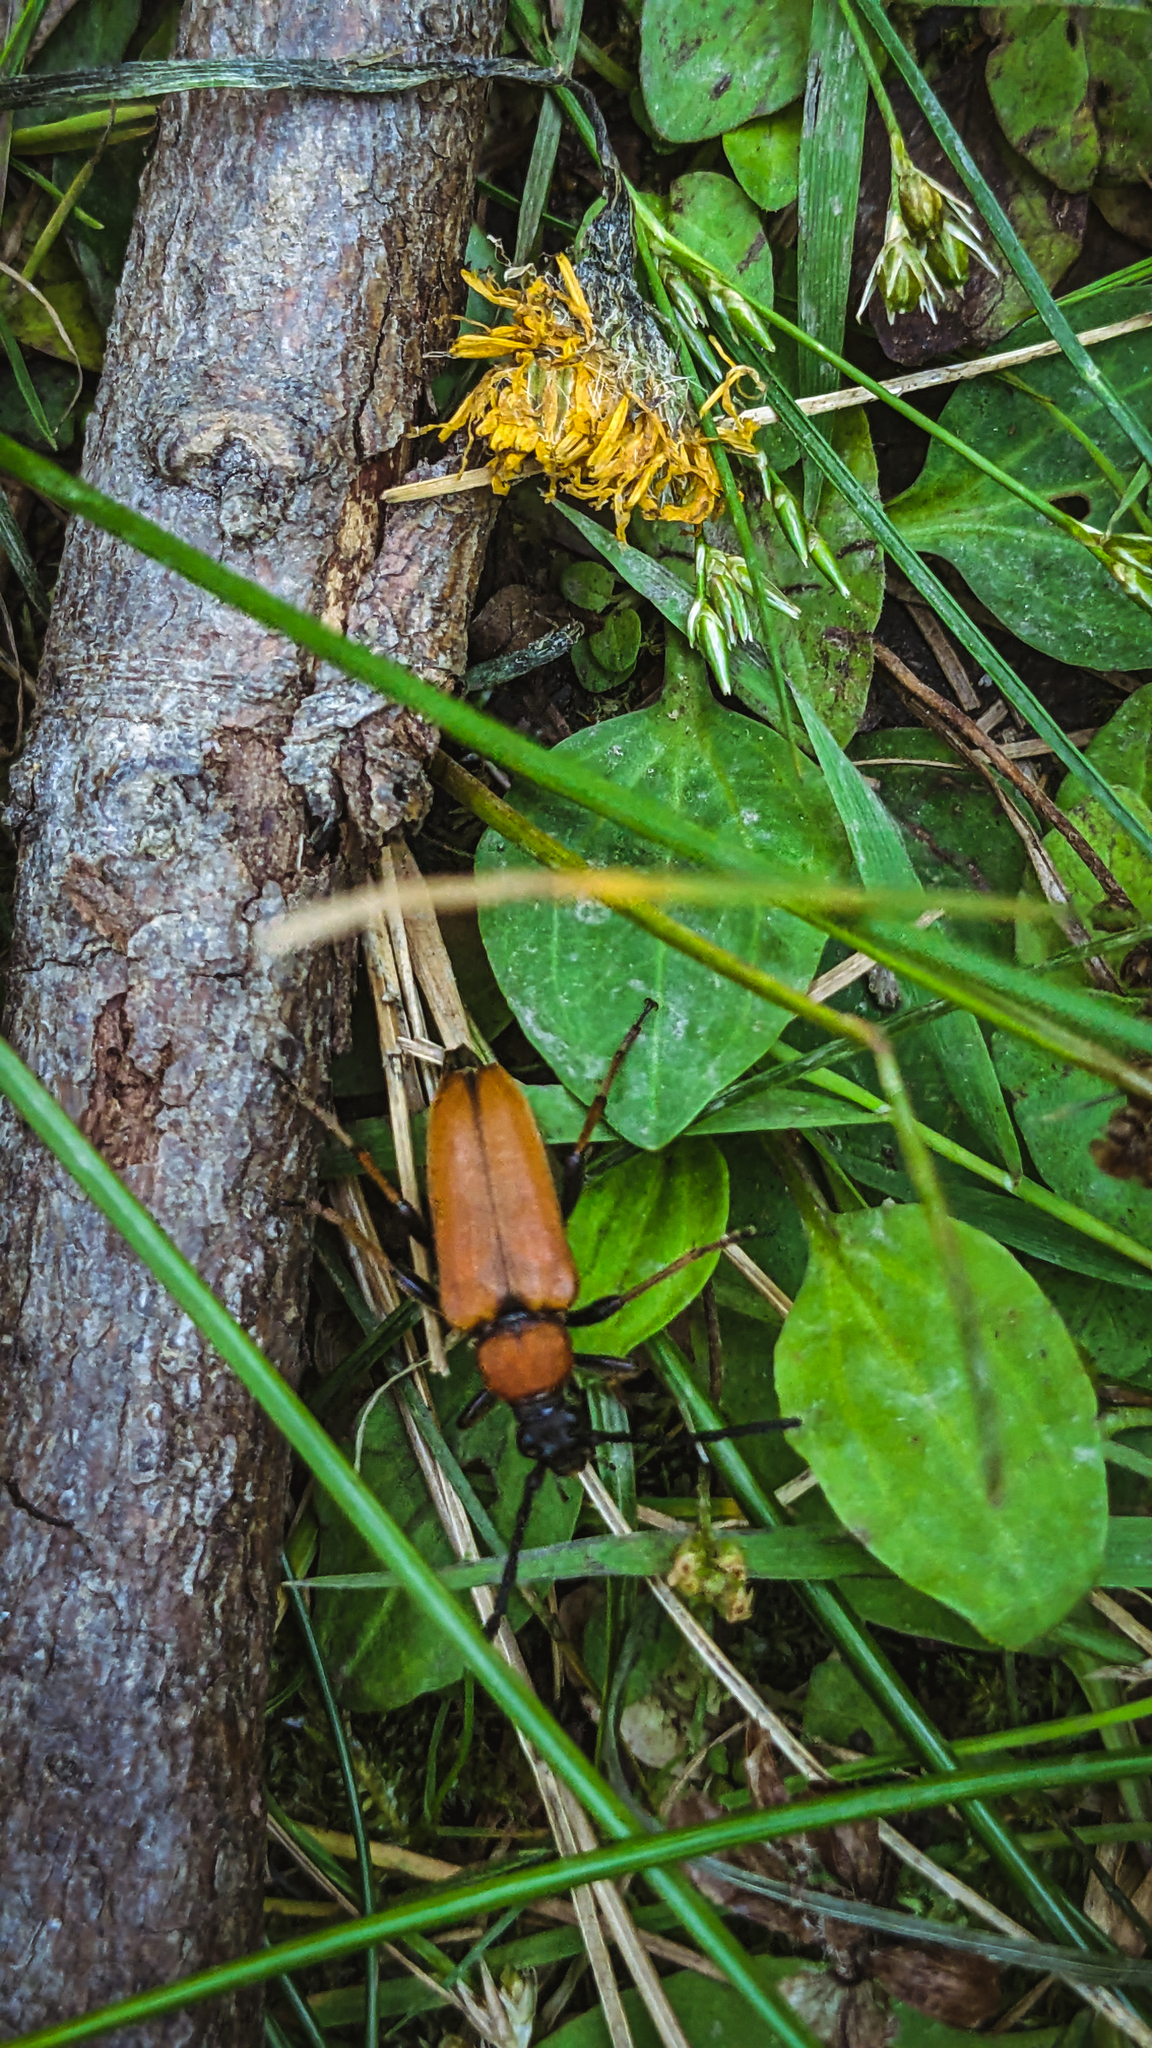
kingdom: Animalia
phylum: Arthropoda
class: Insecta
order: Coleoptera
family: Cerambycidae
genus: Stictoleptura
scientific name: Stictoleptura rubra
